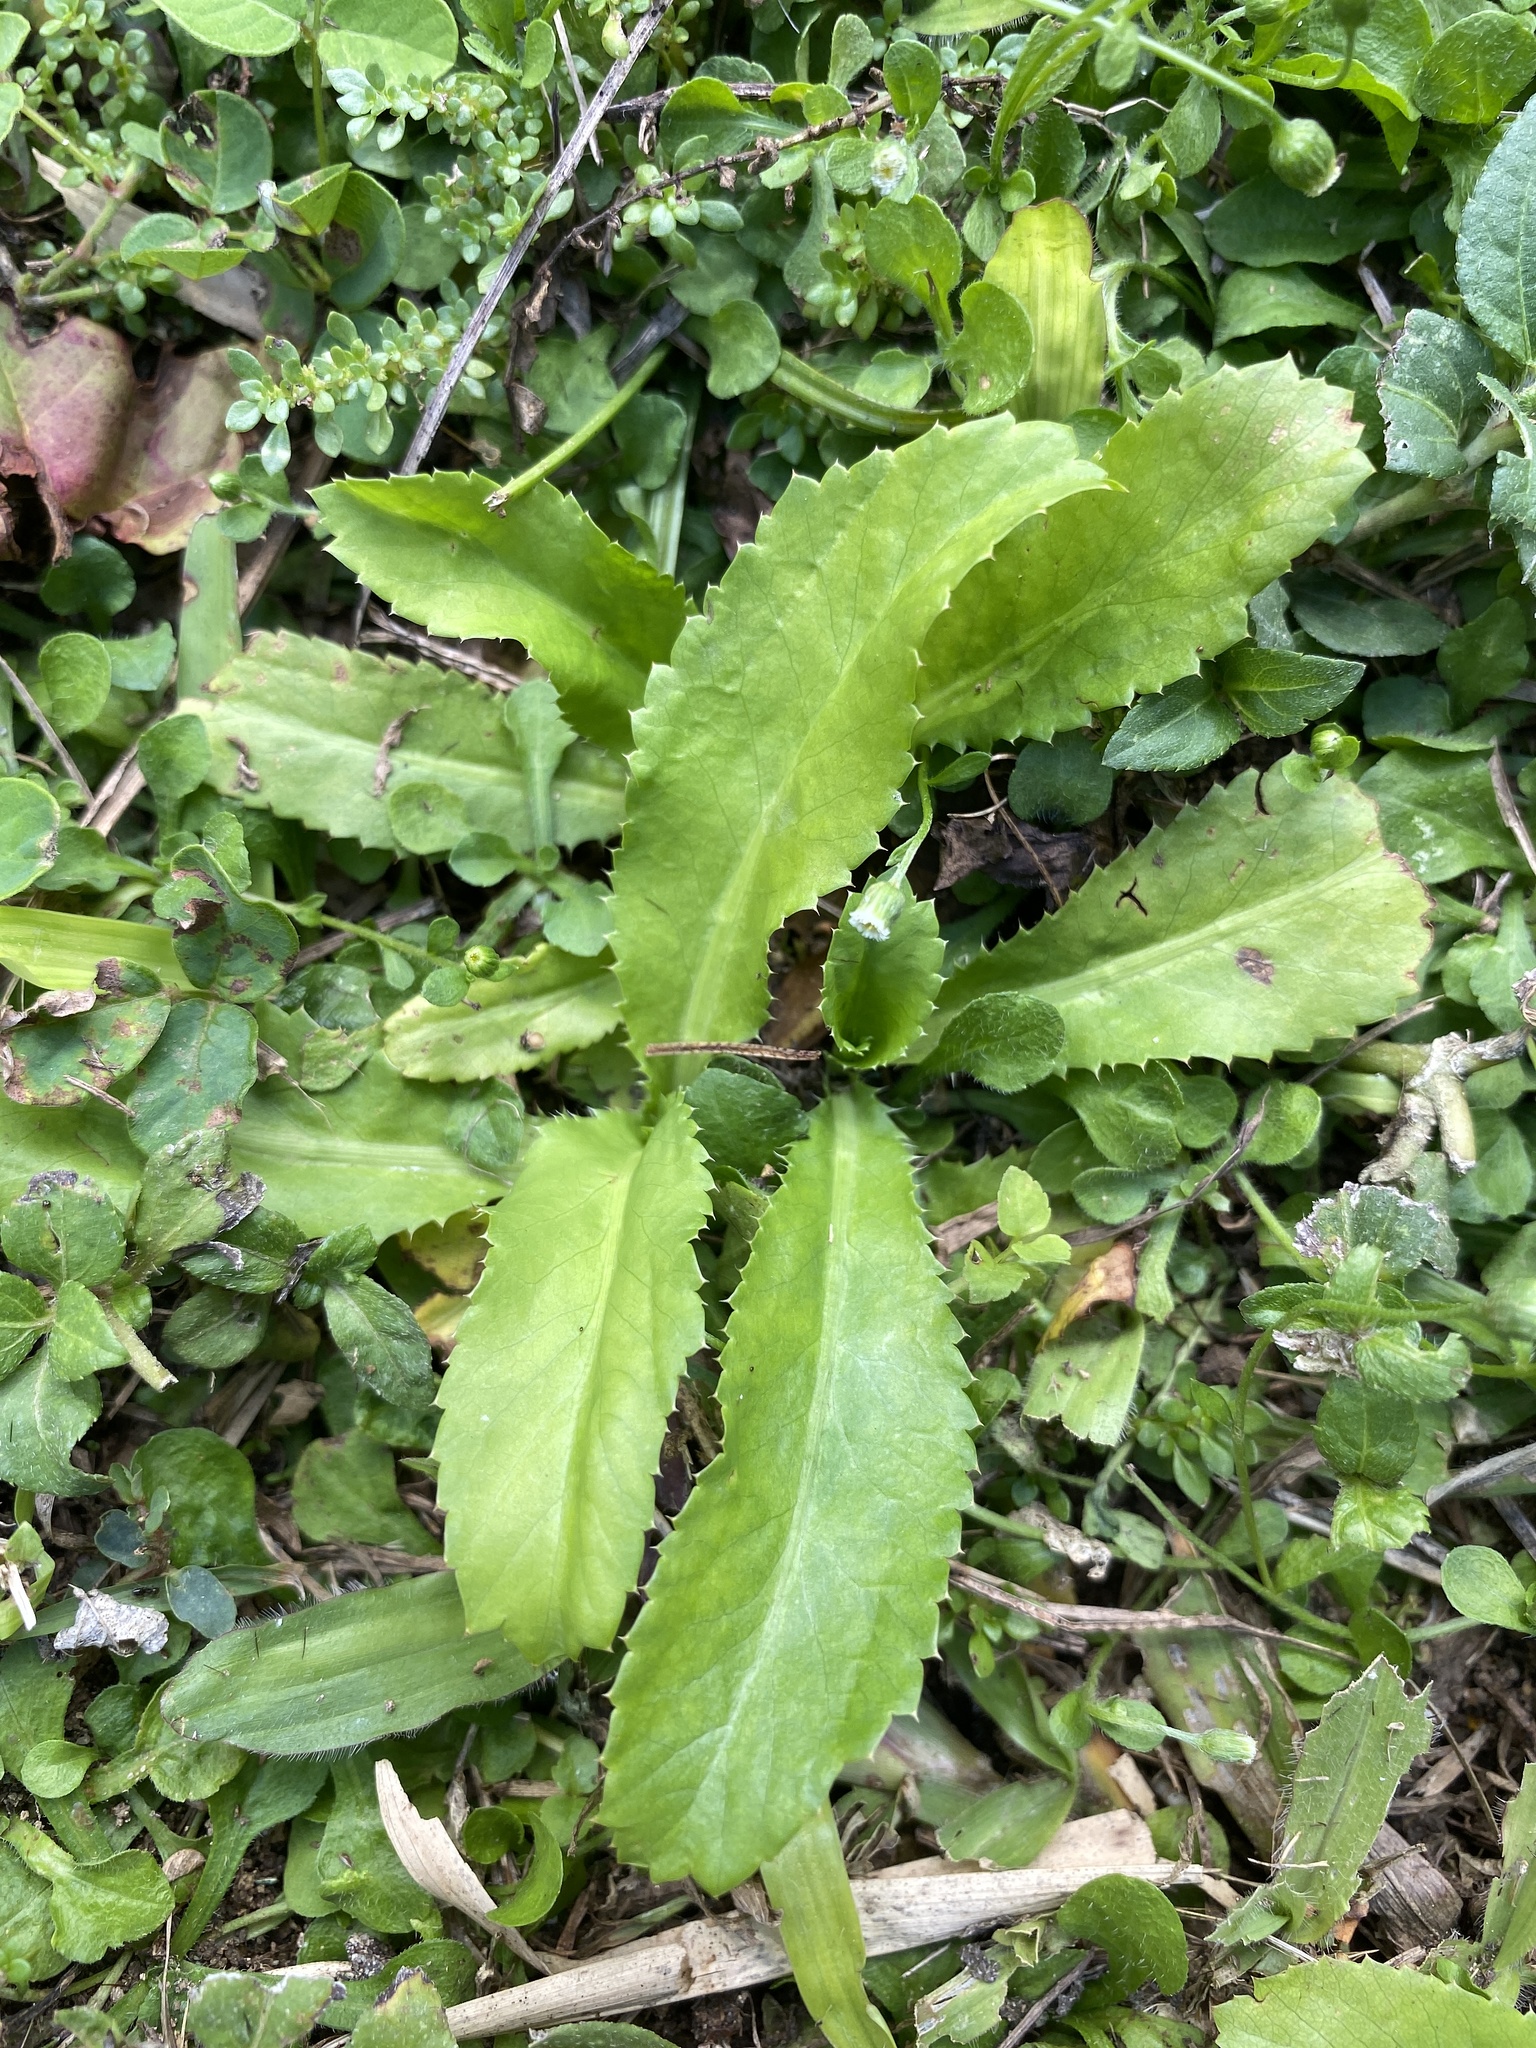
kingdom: Plantae
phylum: Tracheophyta
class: Magnoliopsida
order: Apiales
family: Apiaceae
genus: Eryngium
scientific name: Eryngium foetidum
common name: Fitweed
